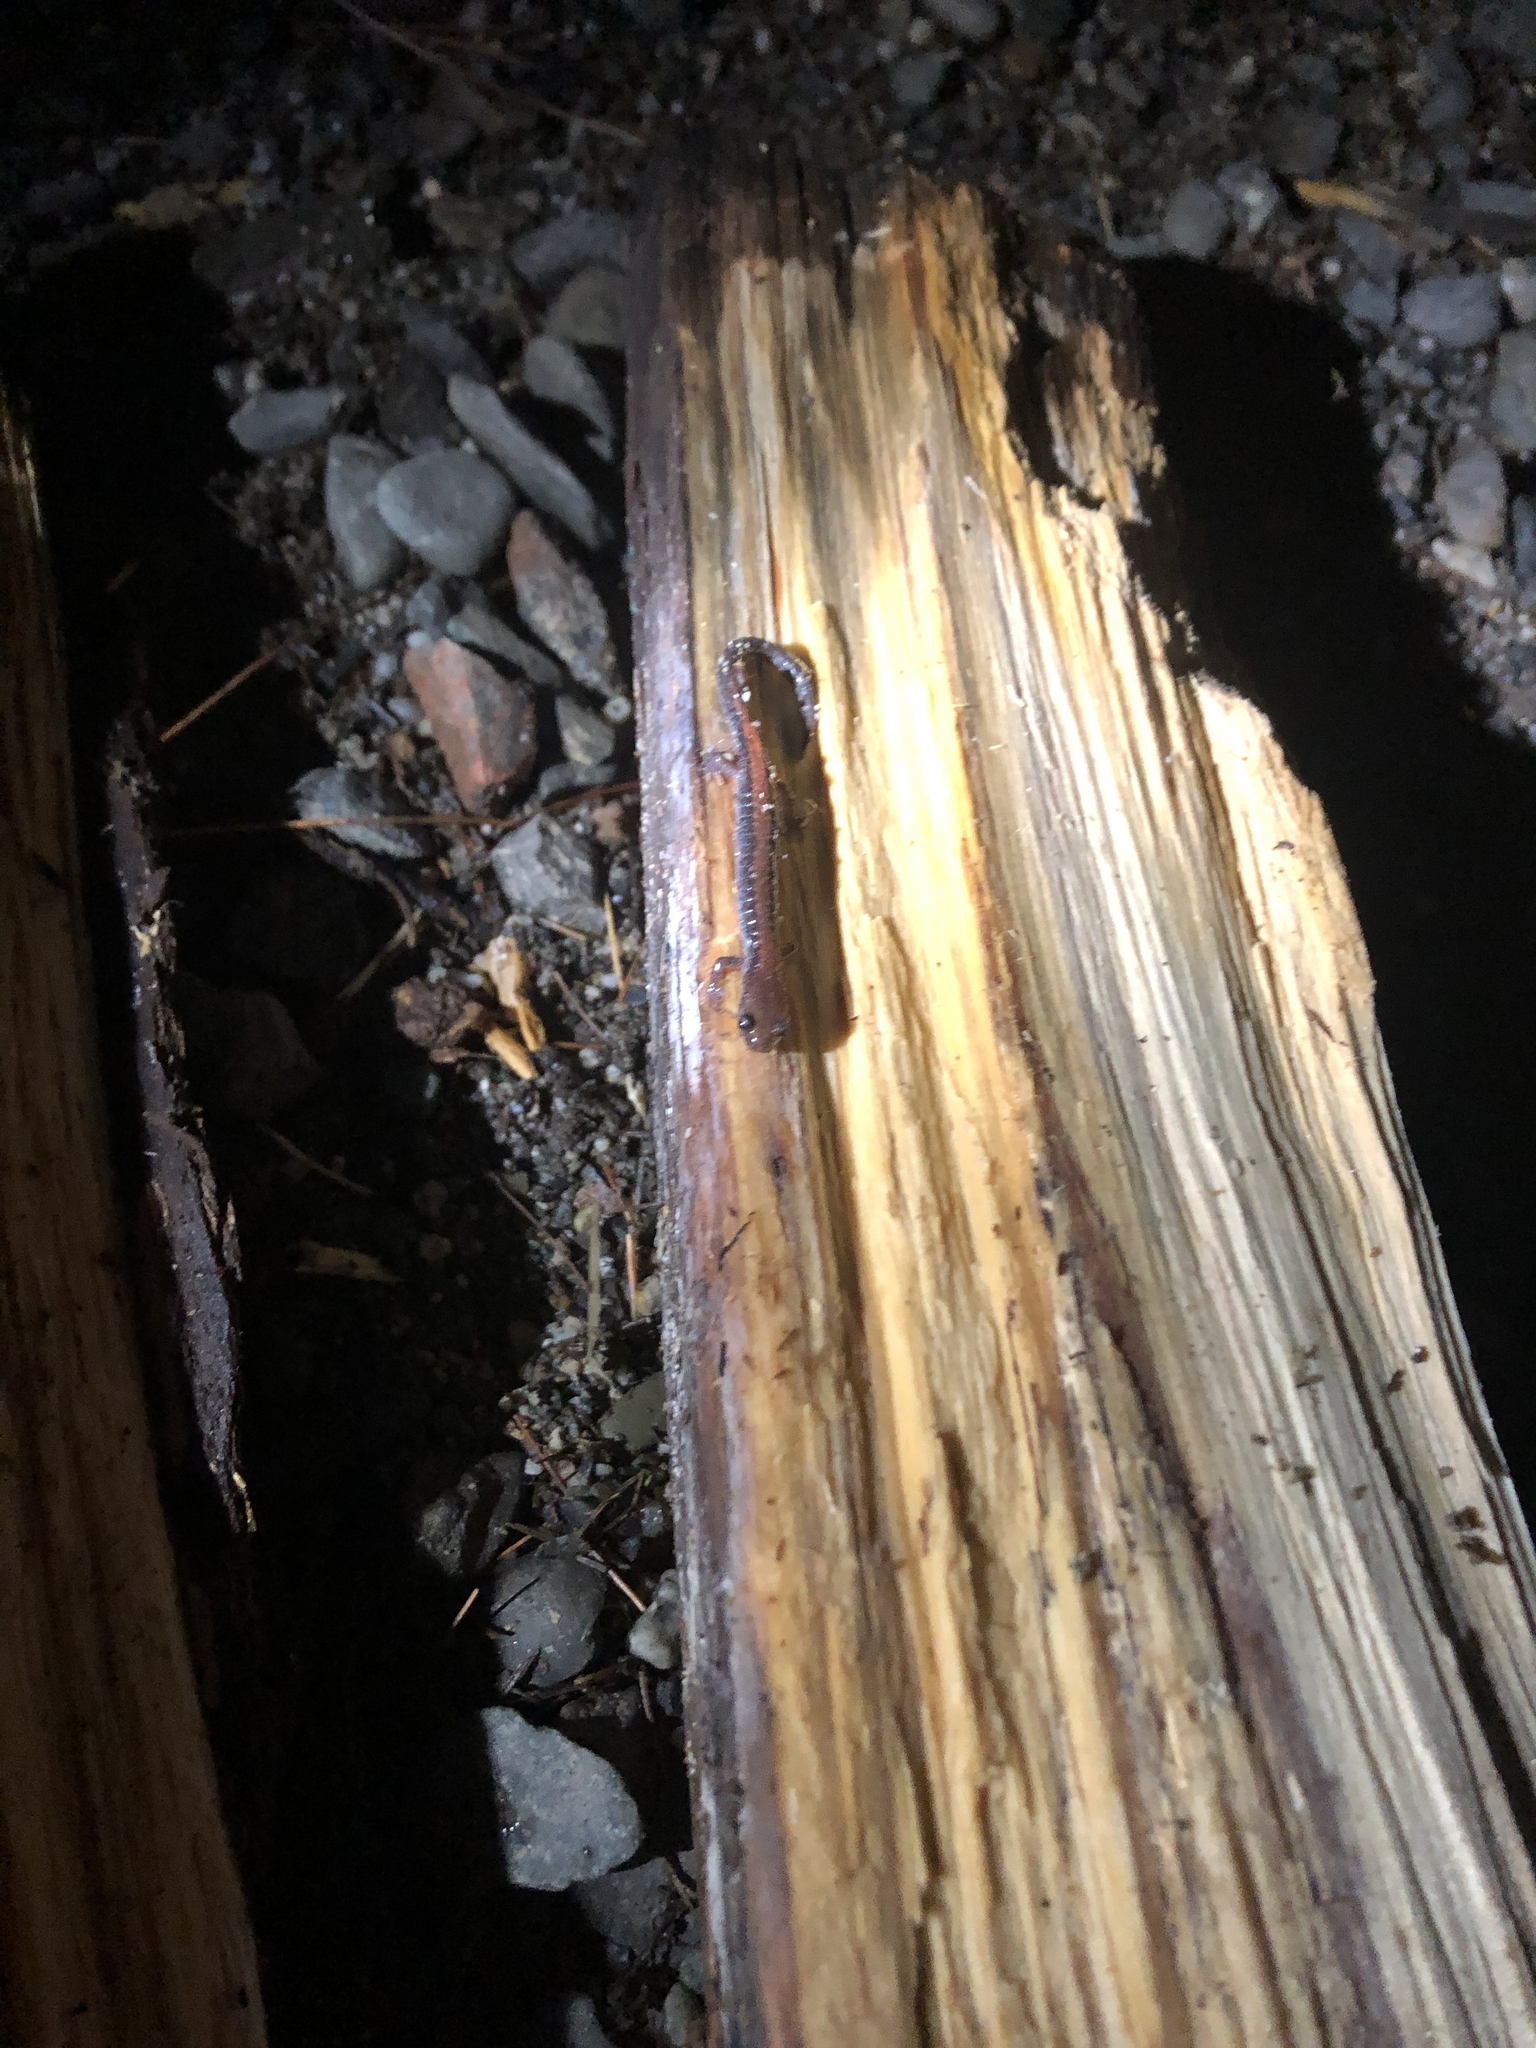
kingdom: Animalia
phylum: Chordata
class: Amphibia
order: Caudata
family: Plethodontidae
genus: Plethodon
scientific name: Plethodon cinereus
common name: Redback salamander
